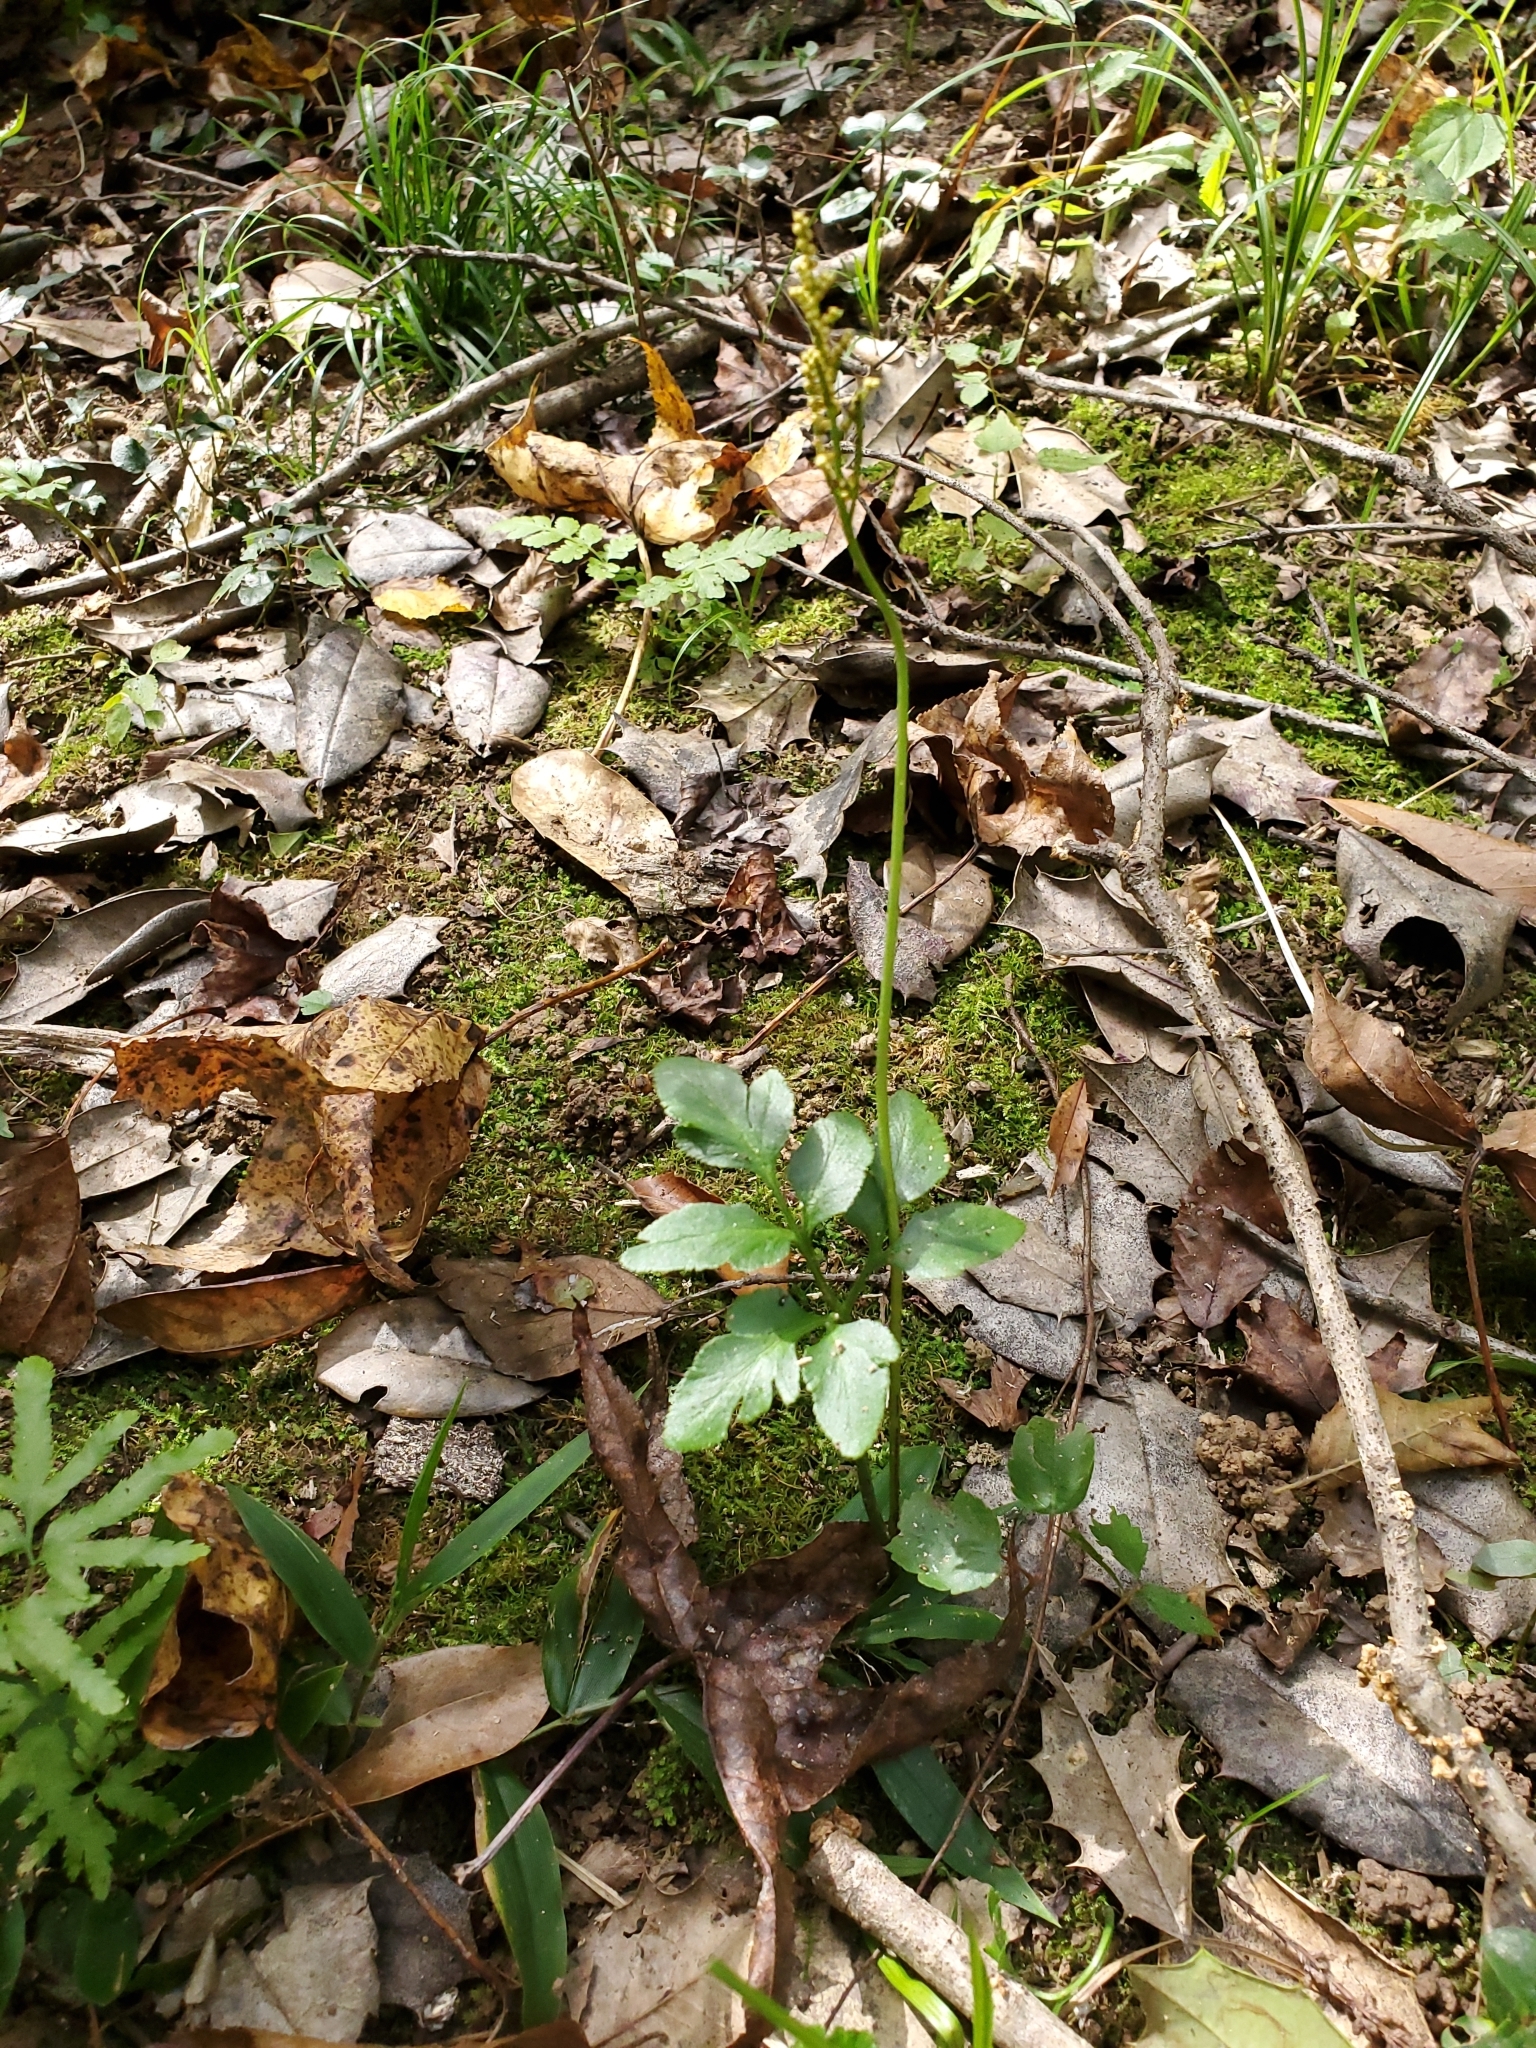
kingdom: Plantae
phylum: Tracheophyta
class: Polypodiopsida
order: Ophioglossales
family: Ophioglossaceae
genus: Sceptridium
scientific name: Sceptridium biternatum
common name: Sparse-lobed grapefern
